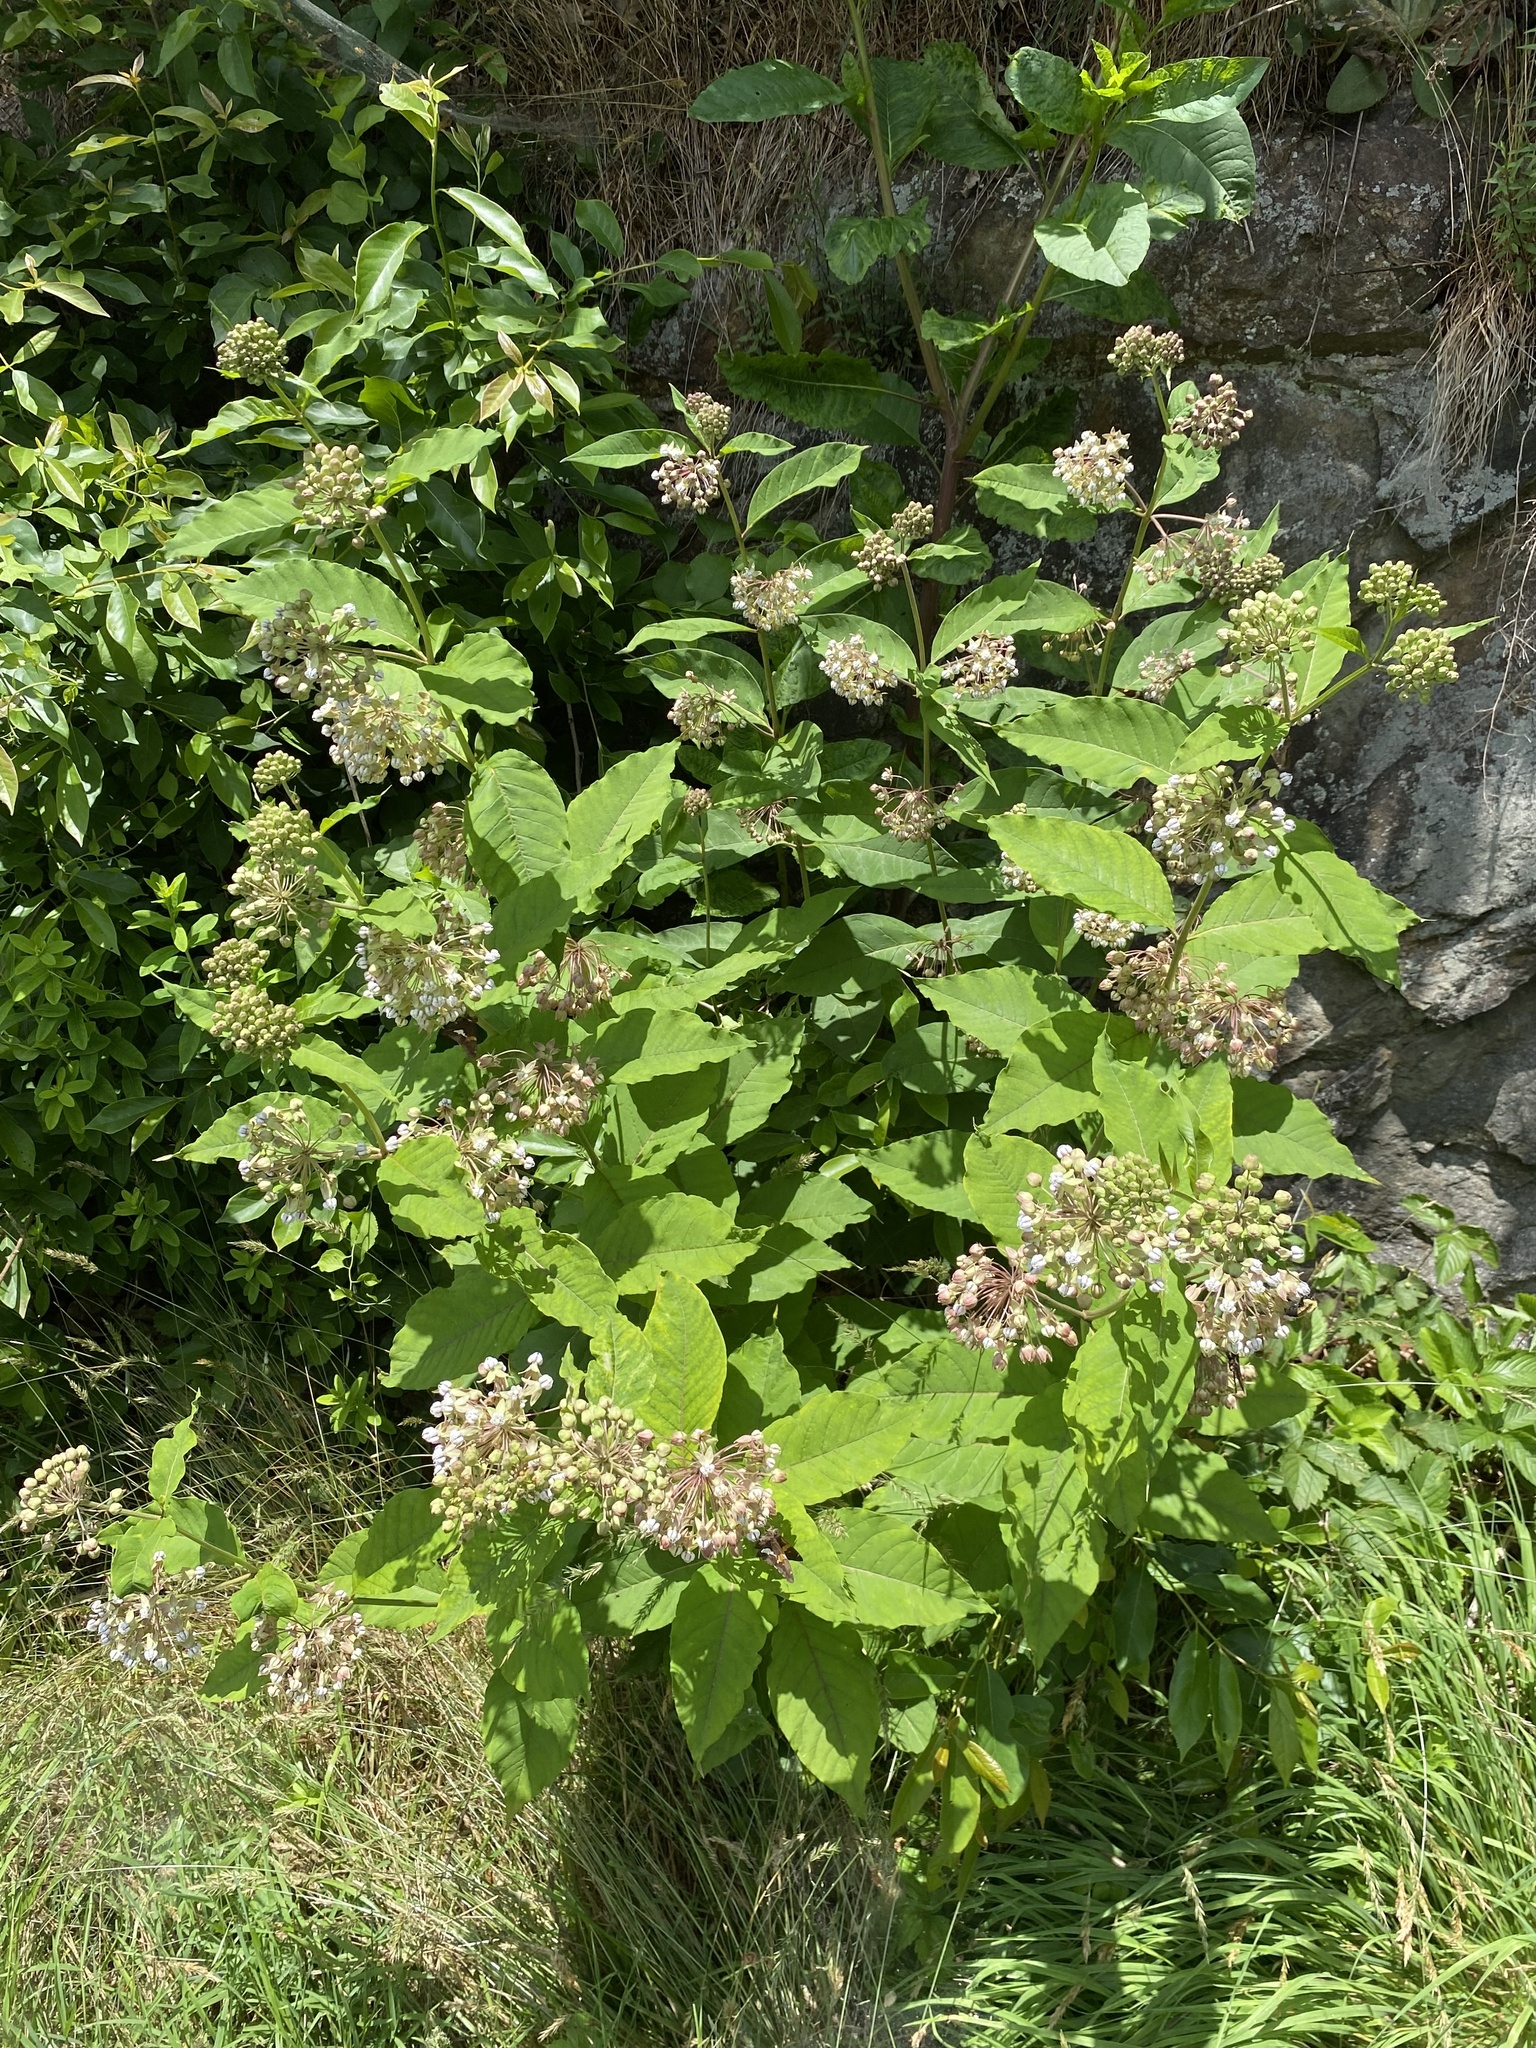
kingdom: Plantae
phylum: Tracheophyta
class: Magnoliopsida
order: Gentianales
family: Apocynaceae
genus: Asclepias
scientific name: Asclepias exaltata
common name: Poke milkweed
